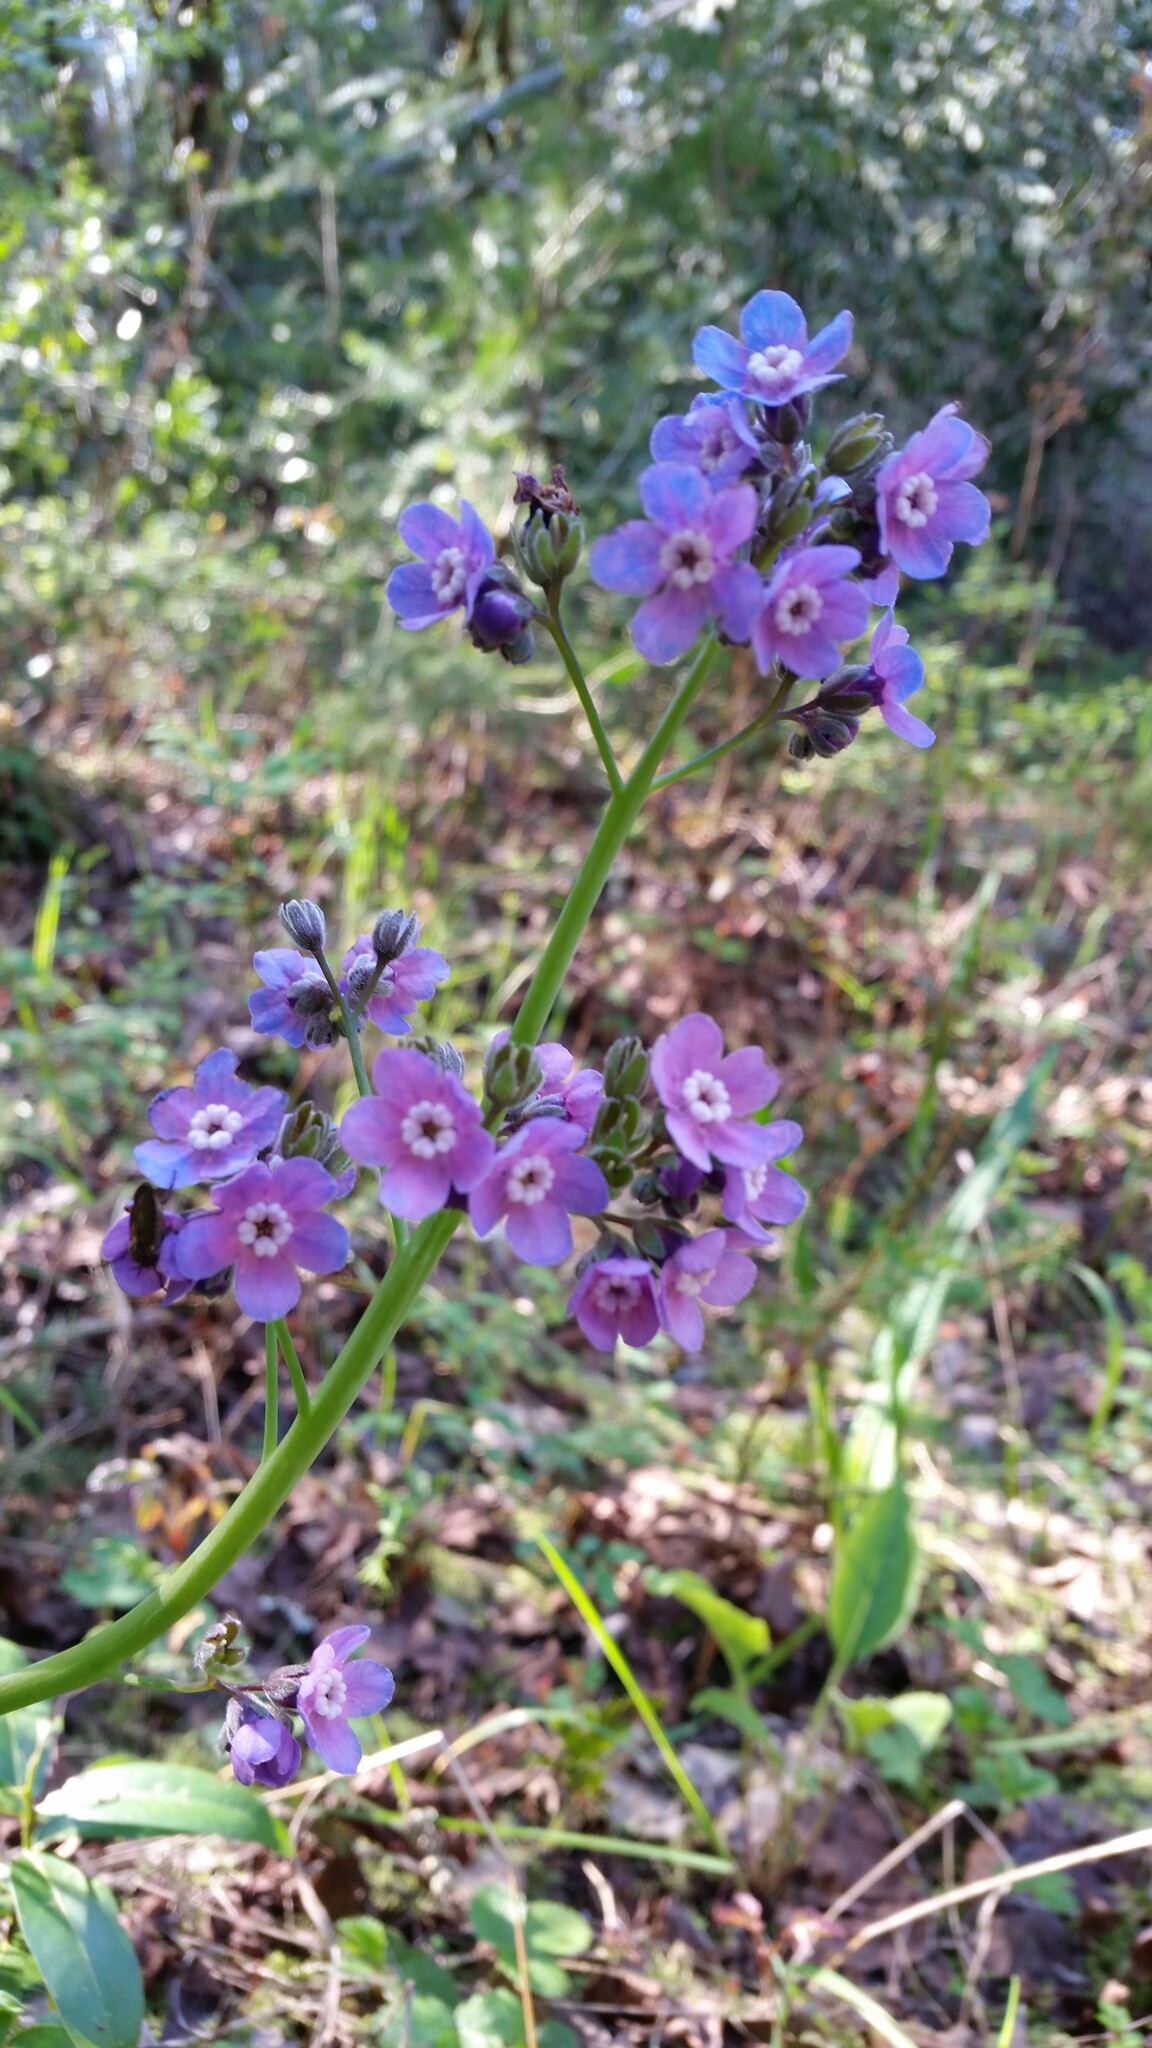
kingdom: Plantae
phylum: Tracheophyta
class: Magnoliopsida
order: Boraginales
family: Boraginaceae
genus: Adelinia
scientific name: Adelinia grande
